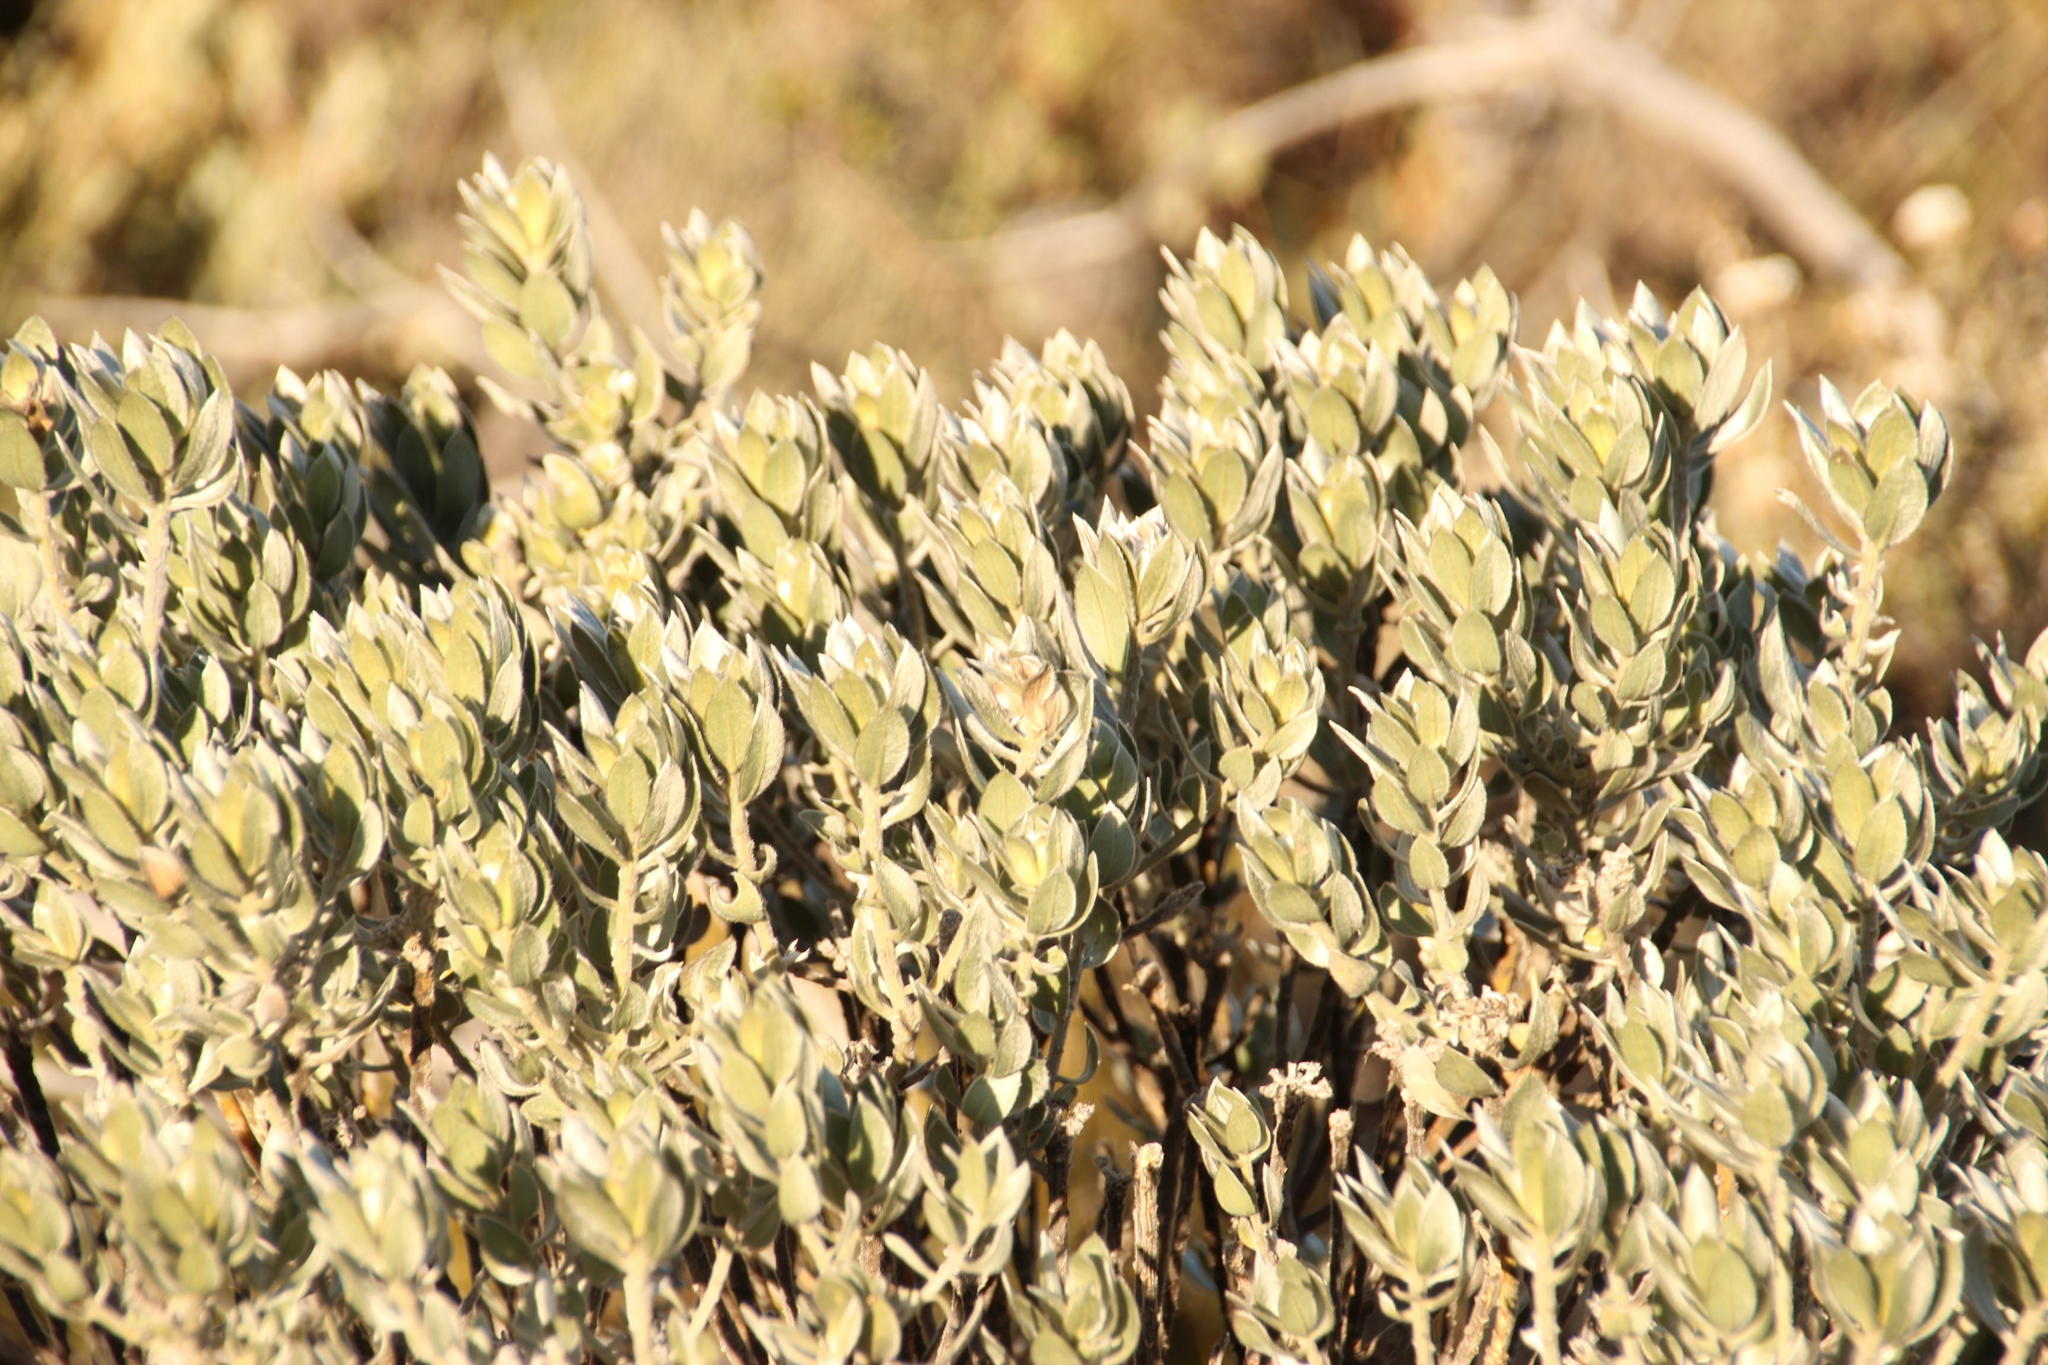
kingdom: Plantae
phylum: Tracheophyta
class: Magnoliopsida
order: Fabales
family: Fabaceae
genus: Xiphotheca
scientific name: Xiphotheca fruticosa
